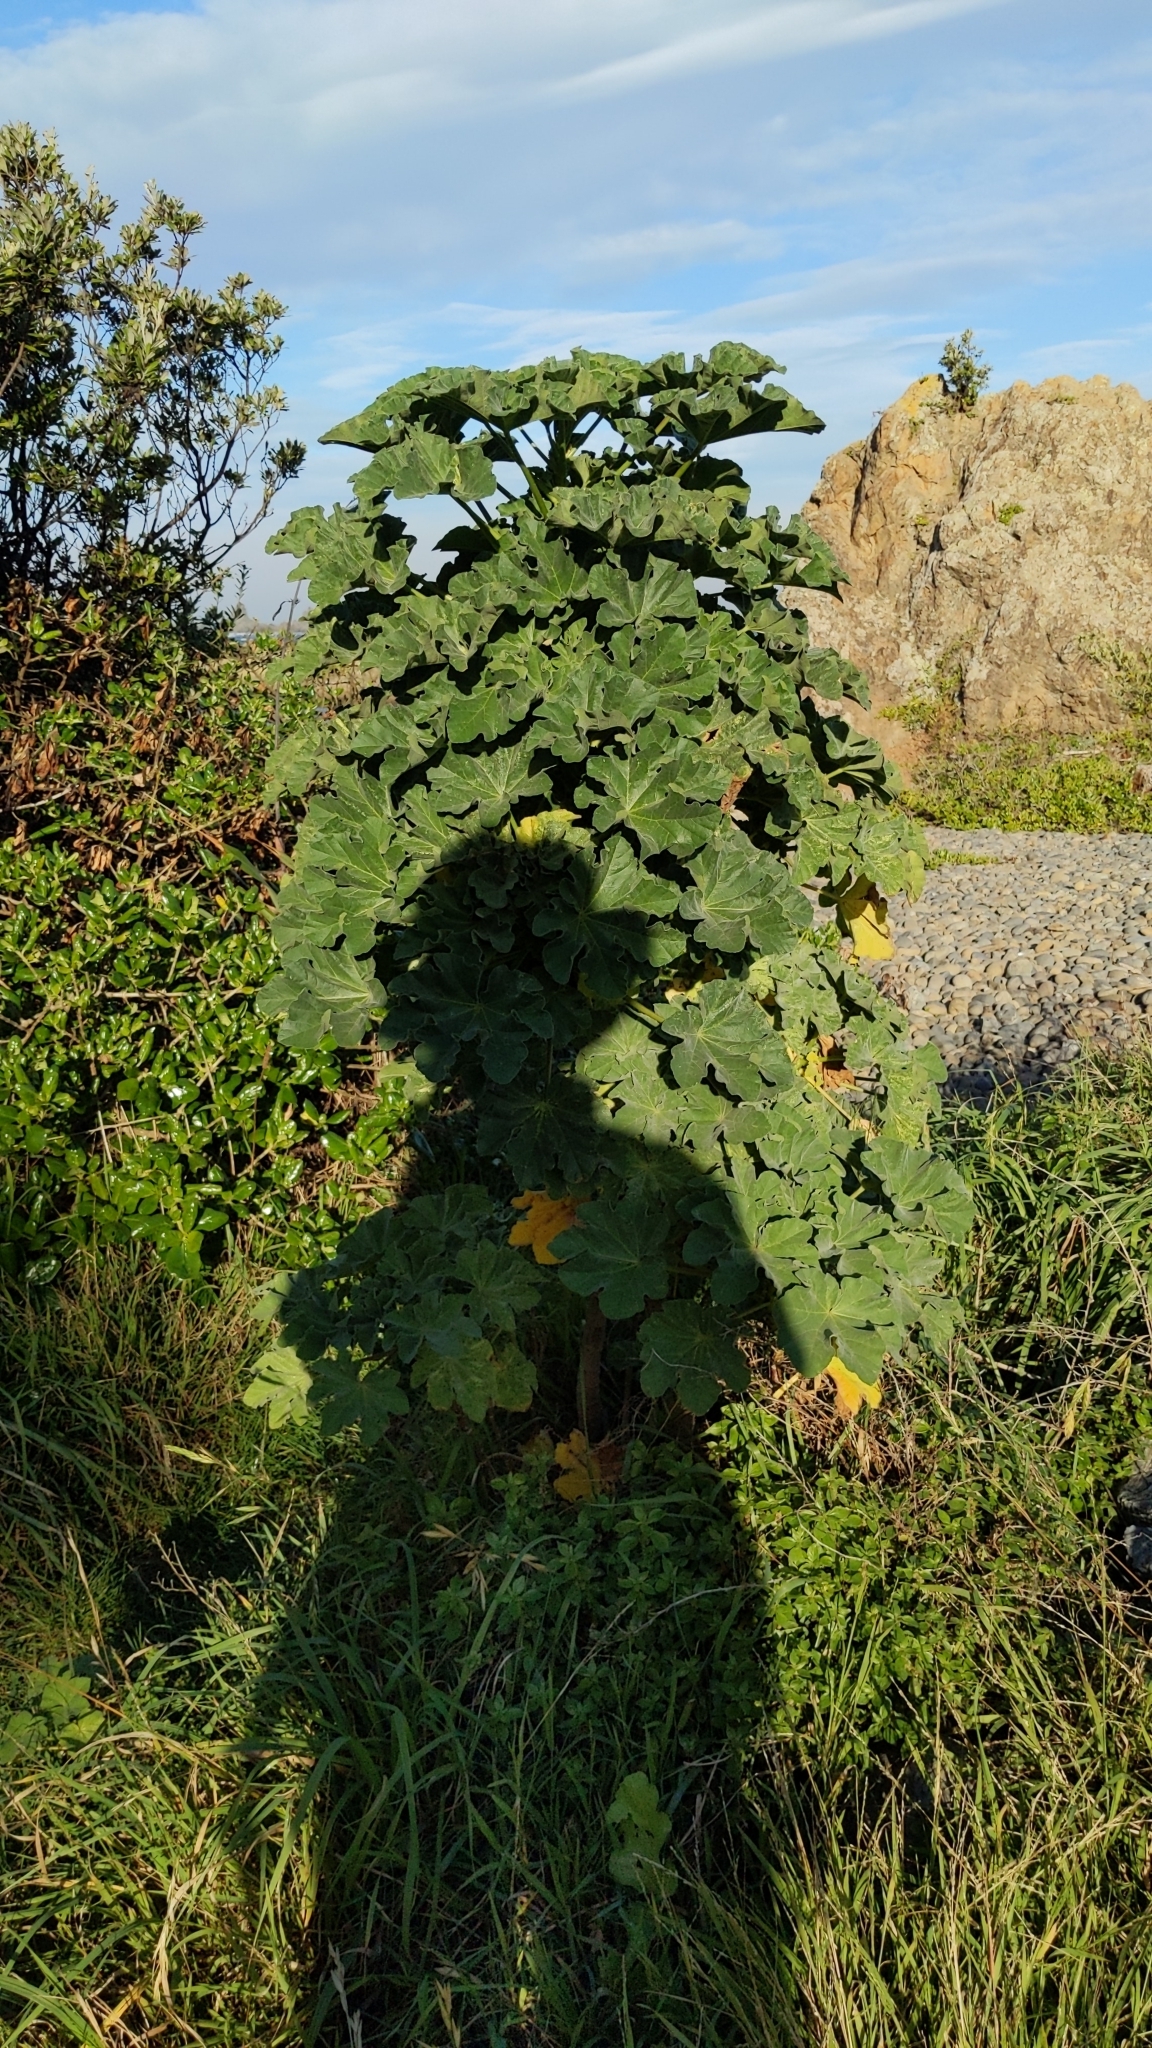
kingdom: Plantae
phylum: Tracheophyta
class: Magnoliopsida
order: Malvales
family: Malvaceae
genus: Malva
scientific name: Malva arborea
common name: Tree mallow
